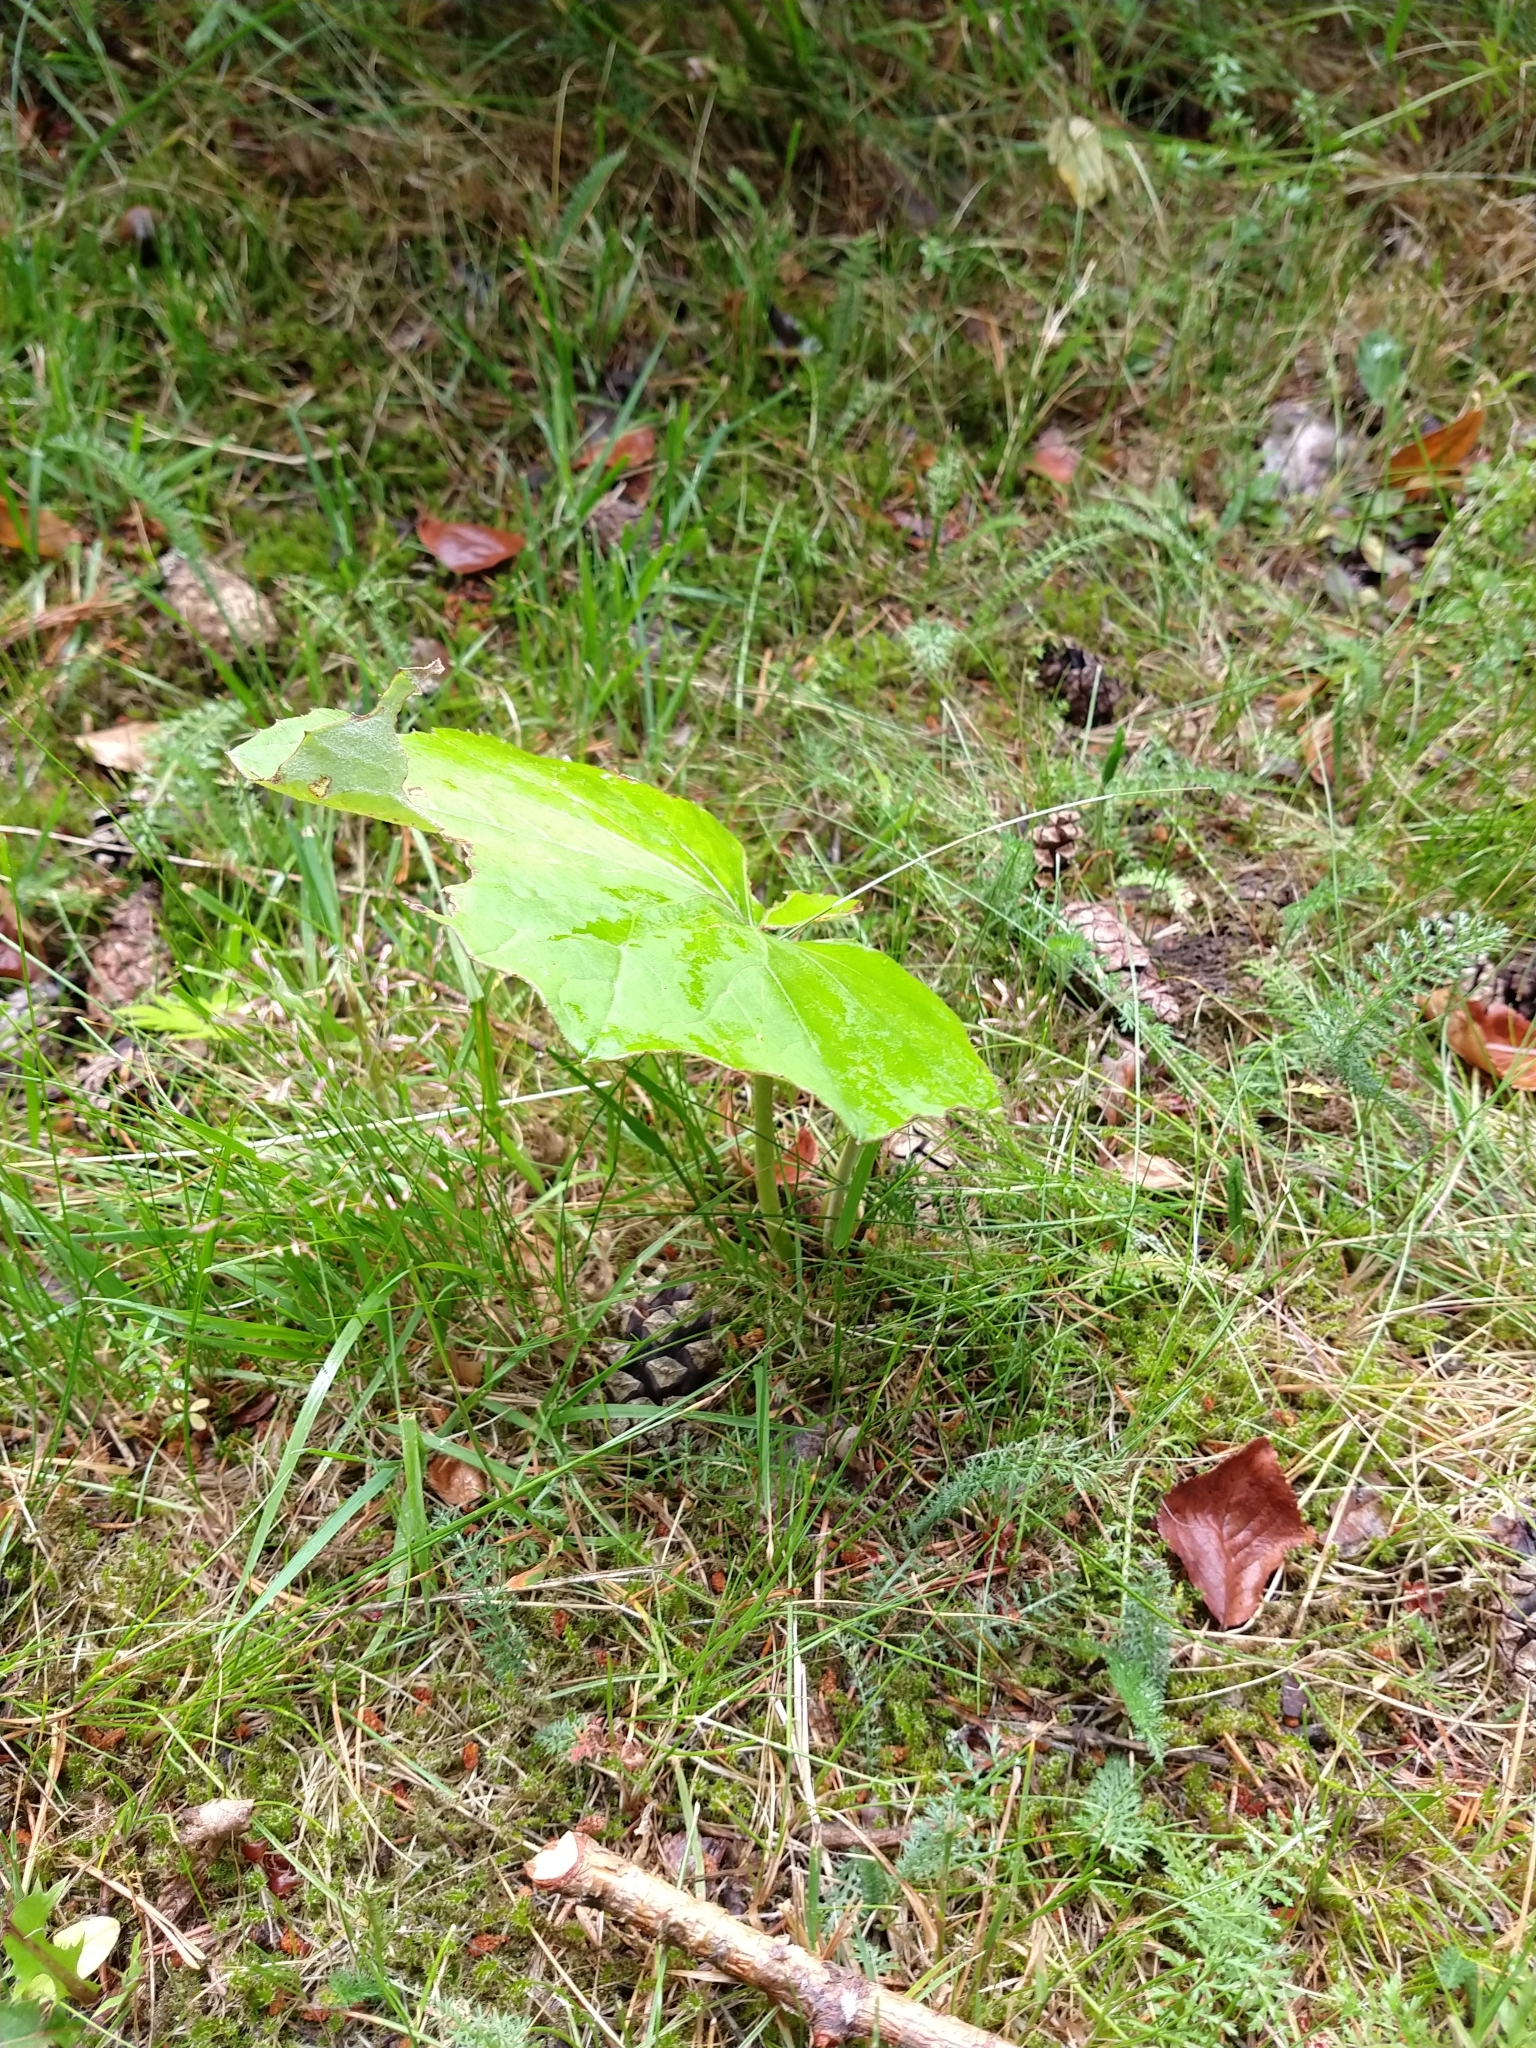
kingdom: Plantae
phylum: Tracheophyta
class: Magnoliopsida
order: Asterales
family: Asteraceae
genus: Tussilago
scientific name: Tussilago farfara
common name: Coltsfoot
